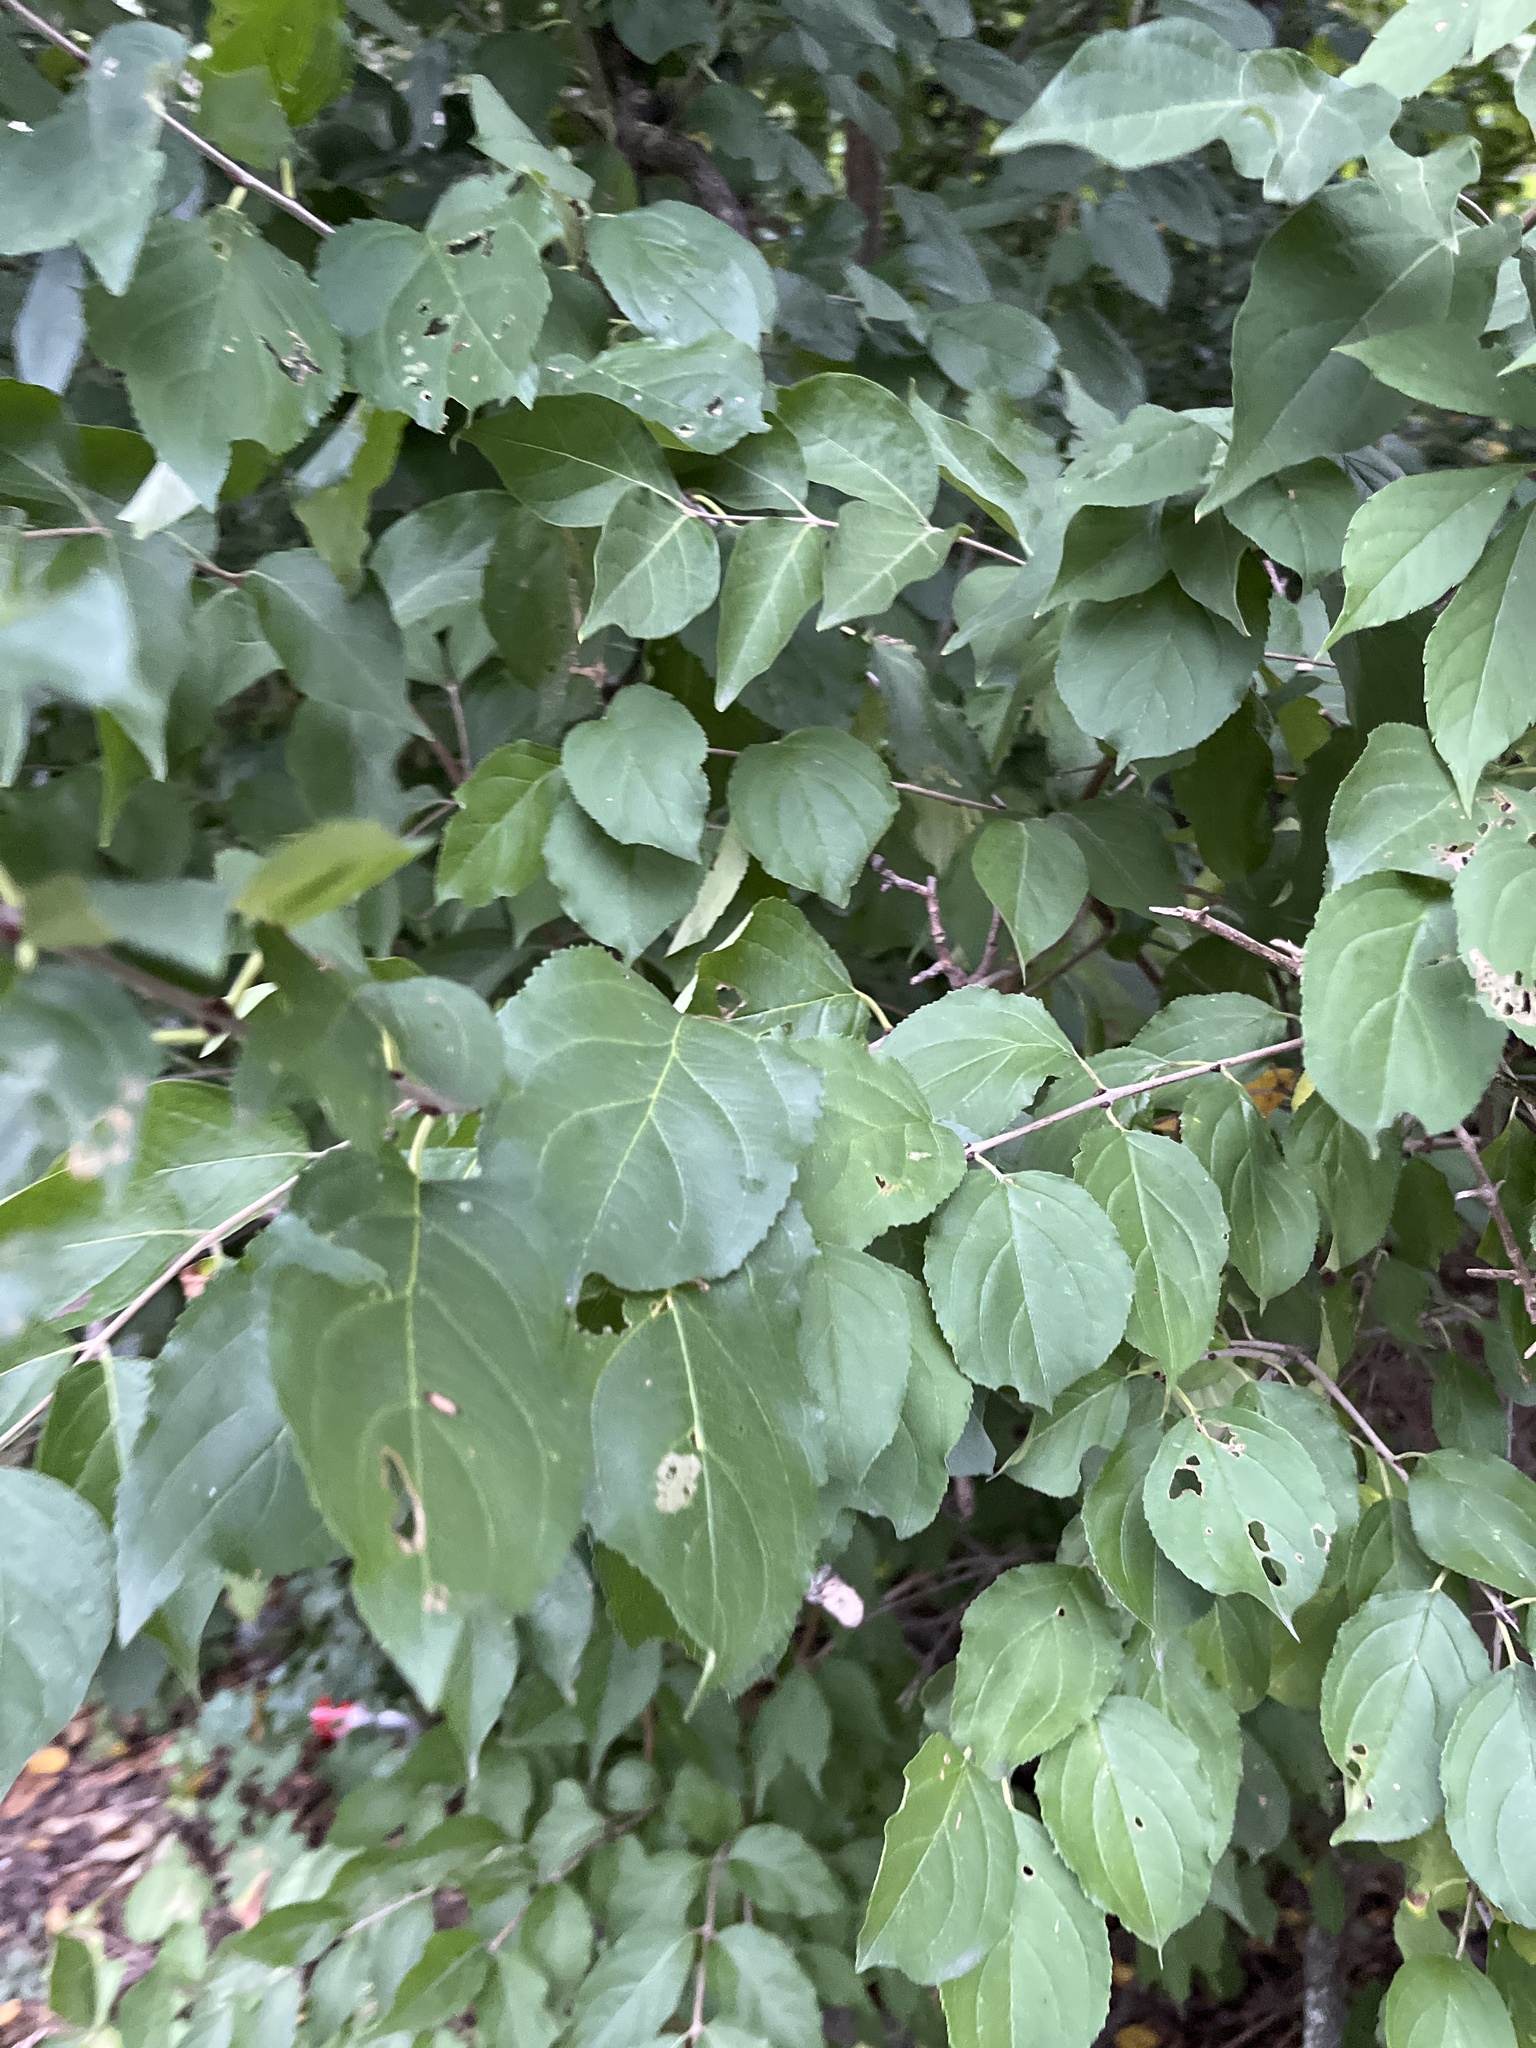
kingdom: Plantae
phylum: Tracheophyta
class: Magnoliopsida
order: Rosales
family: Rhamnaceae
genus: Rhamnus
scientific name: Rhamnus cathartica
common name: Common buckthorn
